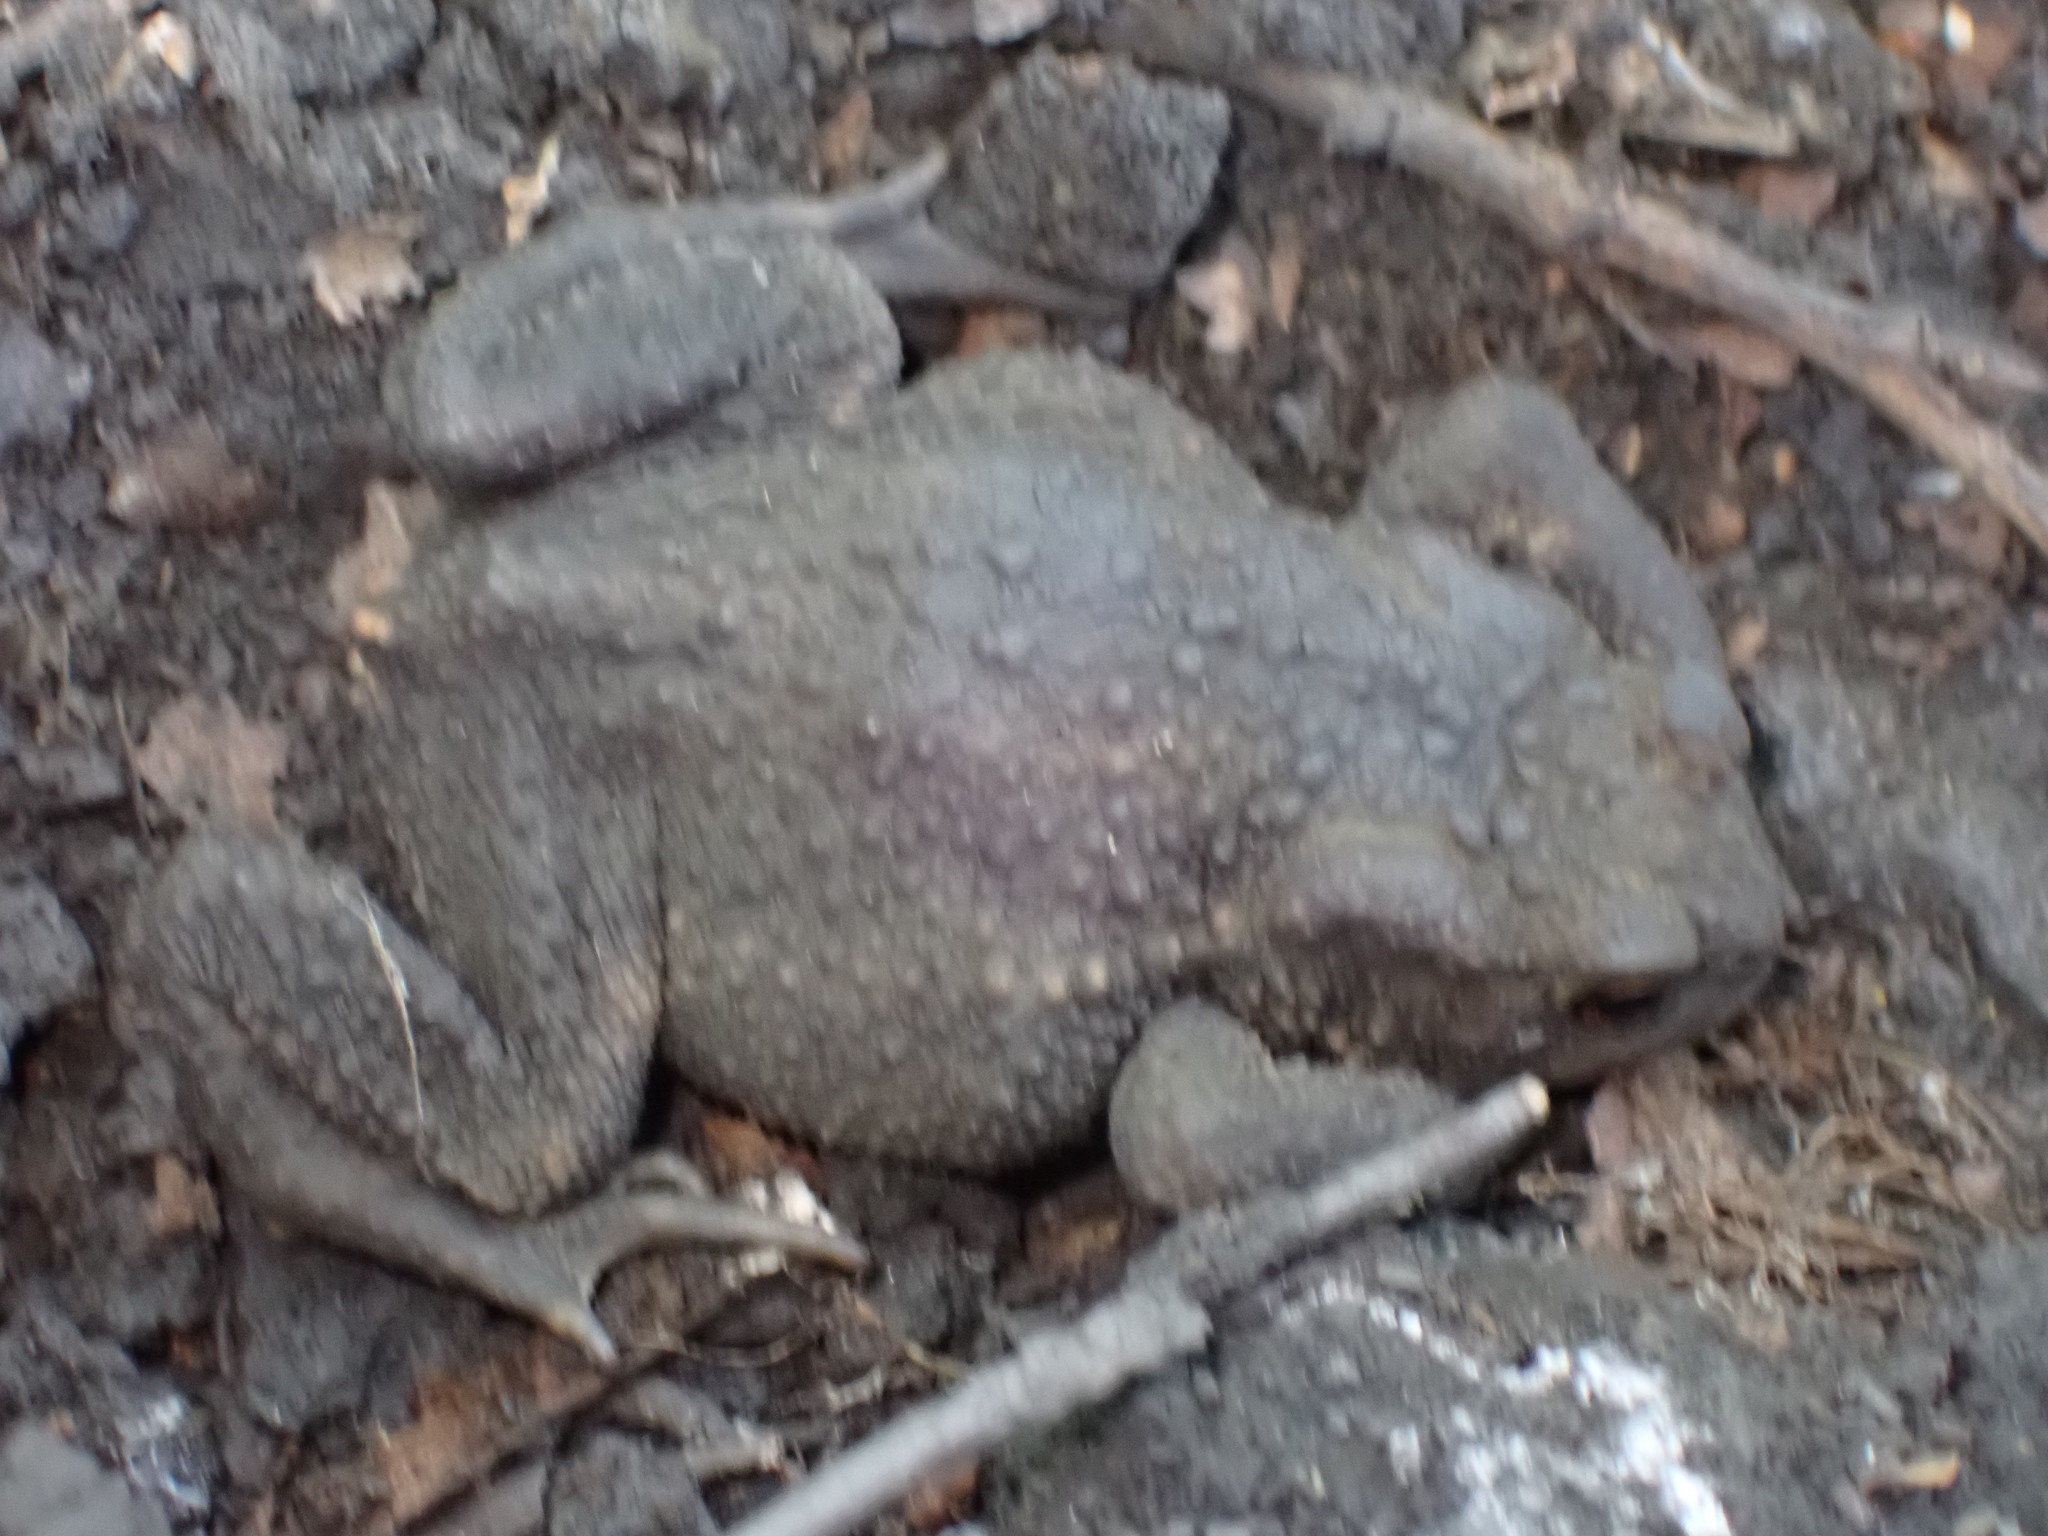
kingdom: Animalia
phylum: Chordata
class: Amphibia
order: Anura
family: Bufonidae
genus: Bufo
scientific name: Bufo bufo
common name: Common toad
